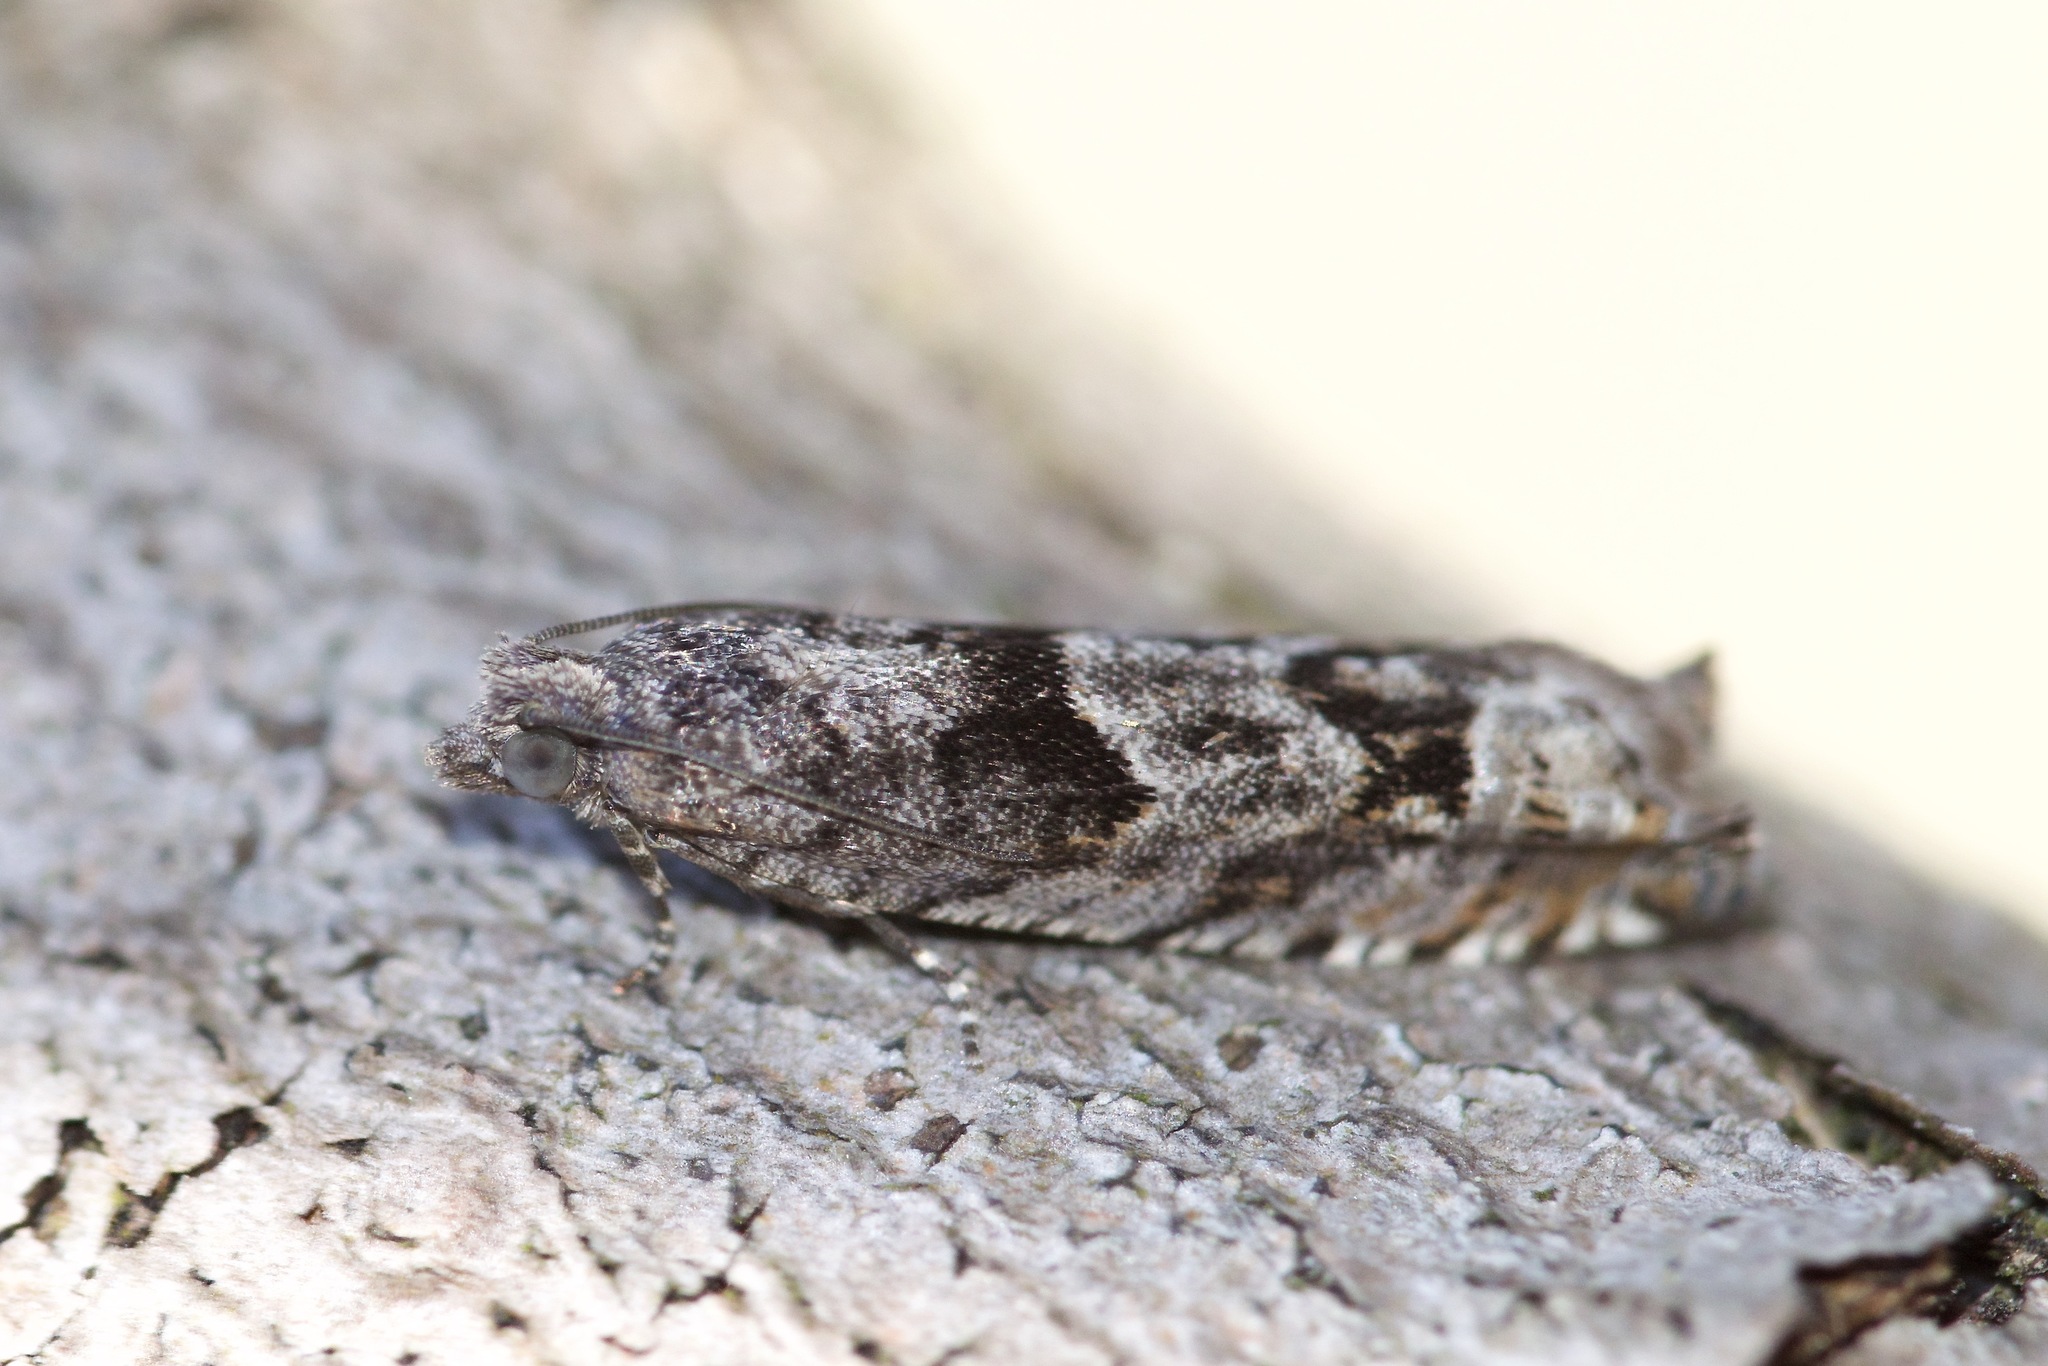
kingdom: Animalia
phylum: Arthropoda
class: Insecta
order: Lepidoptera
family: Tortricidae
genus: Pseudexentera
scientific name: Pseudexentera vaccinii
